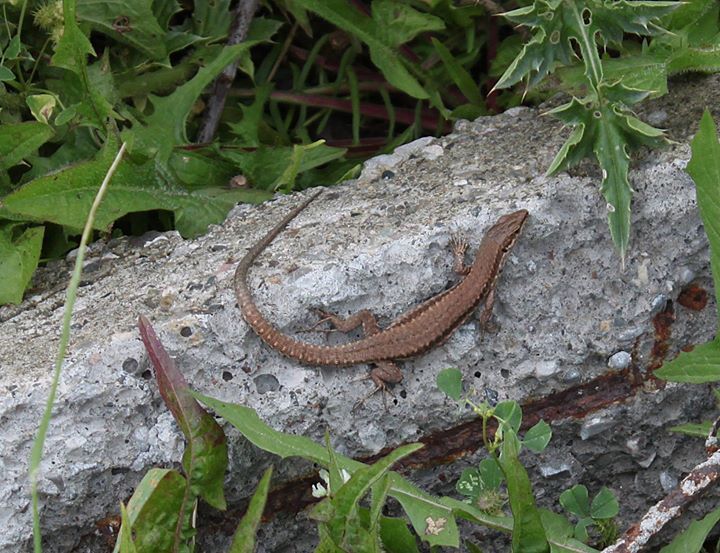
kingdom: Animalia
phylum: Chordata
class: Squamata
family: Lacertidae
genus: Podarcis
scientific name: Podarcis muralis
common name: Common wall lizard
